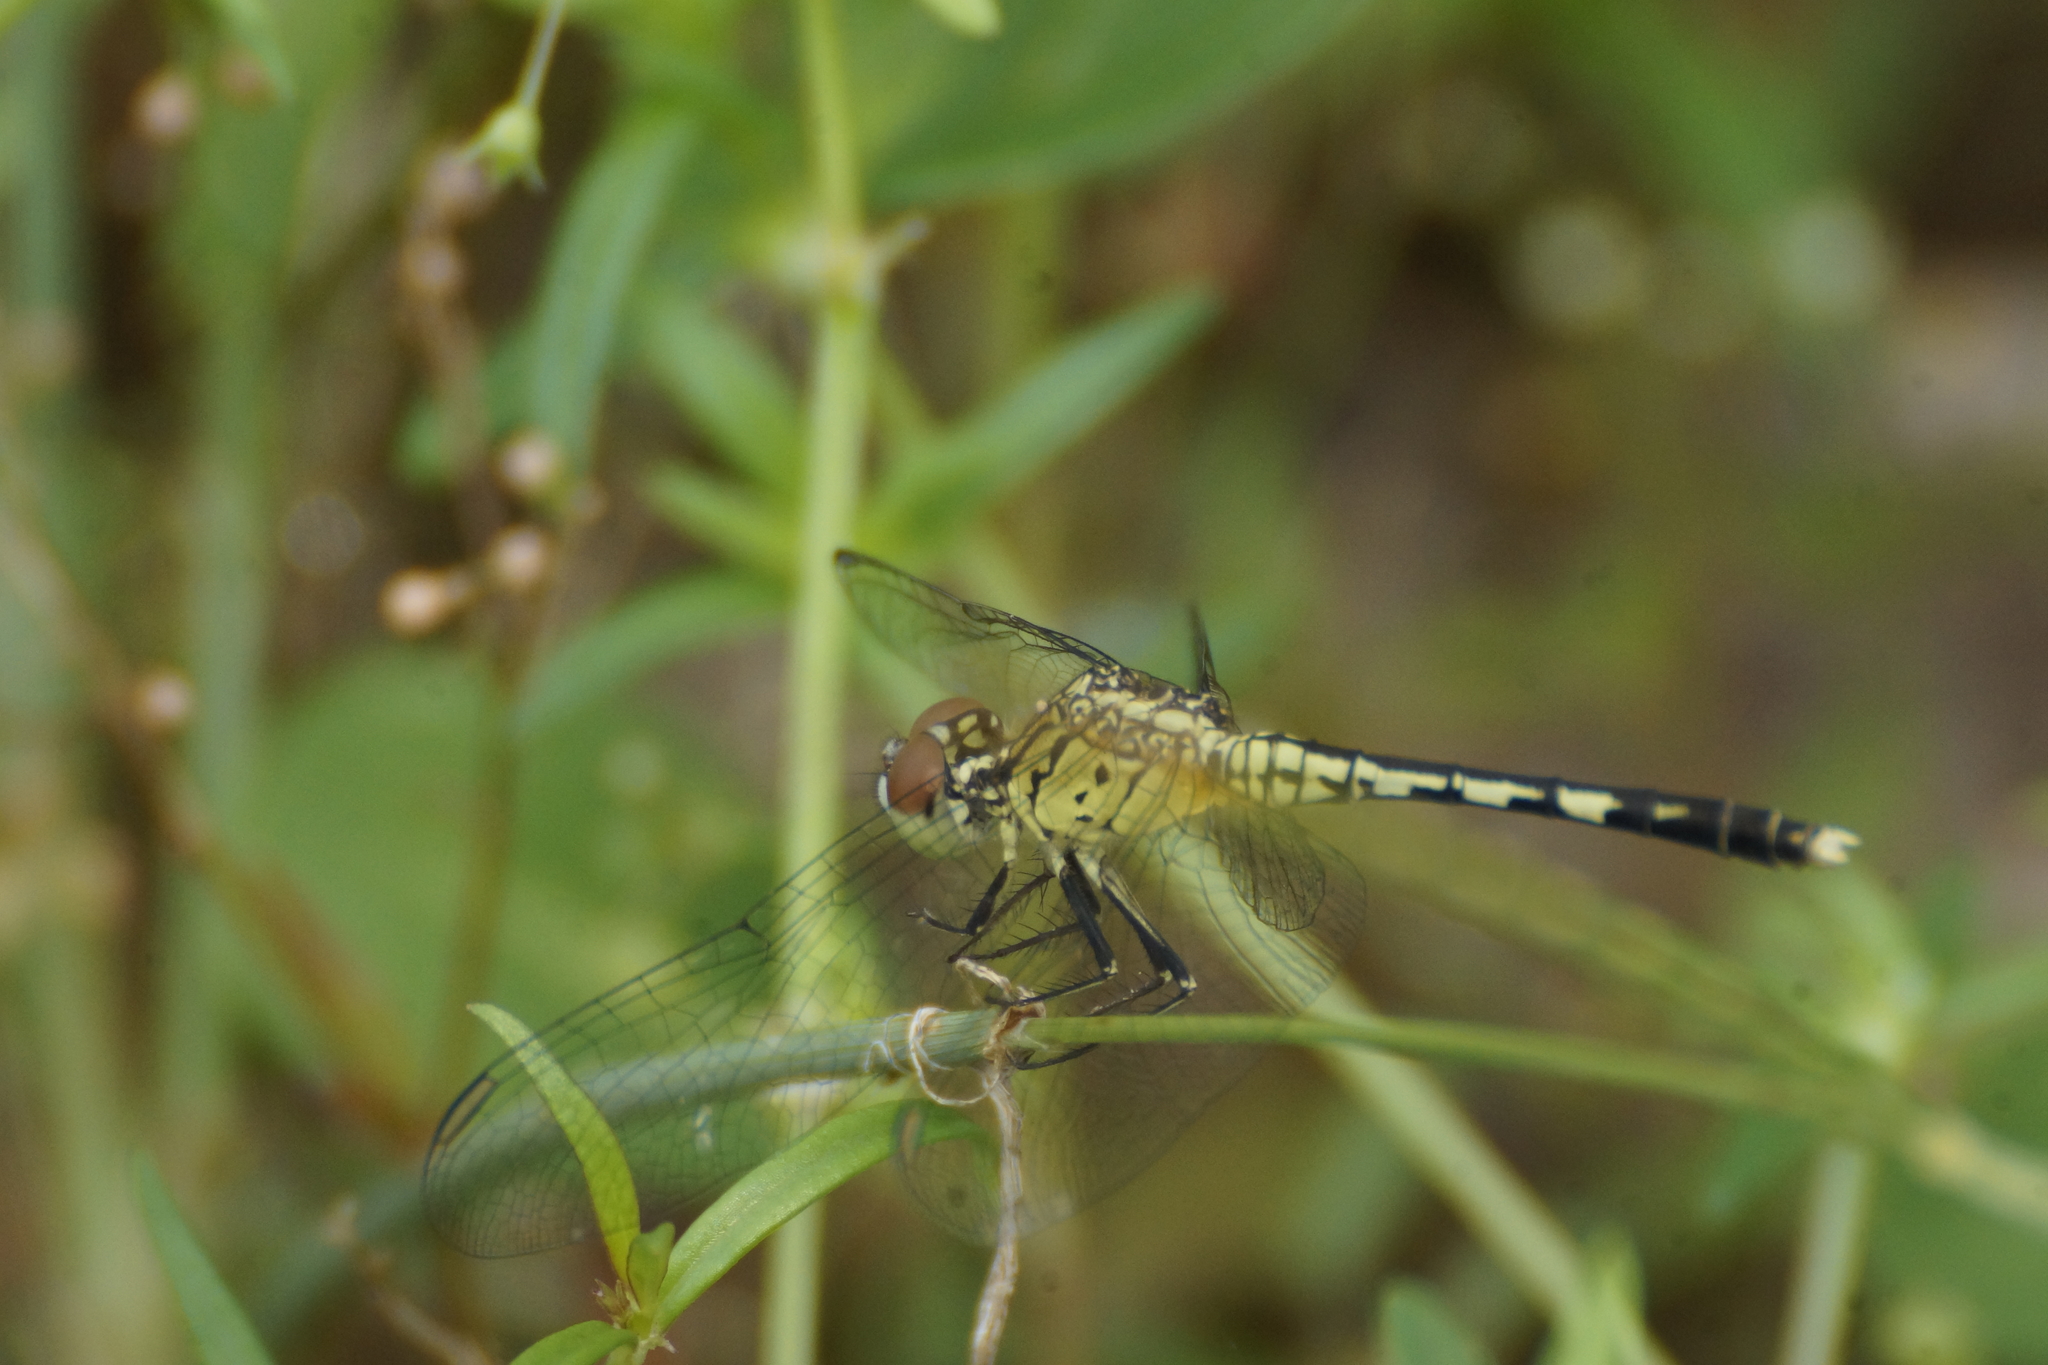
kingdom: Animalia
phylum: Arthropoda
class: Insecta
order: Odonata
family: Libellulidae
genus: Diplacodes
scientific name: Diplacodes trivialis
